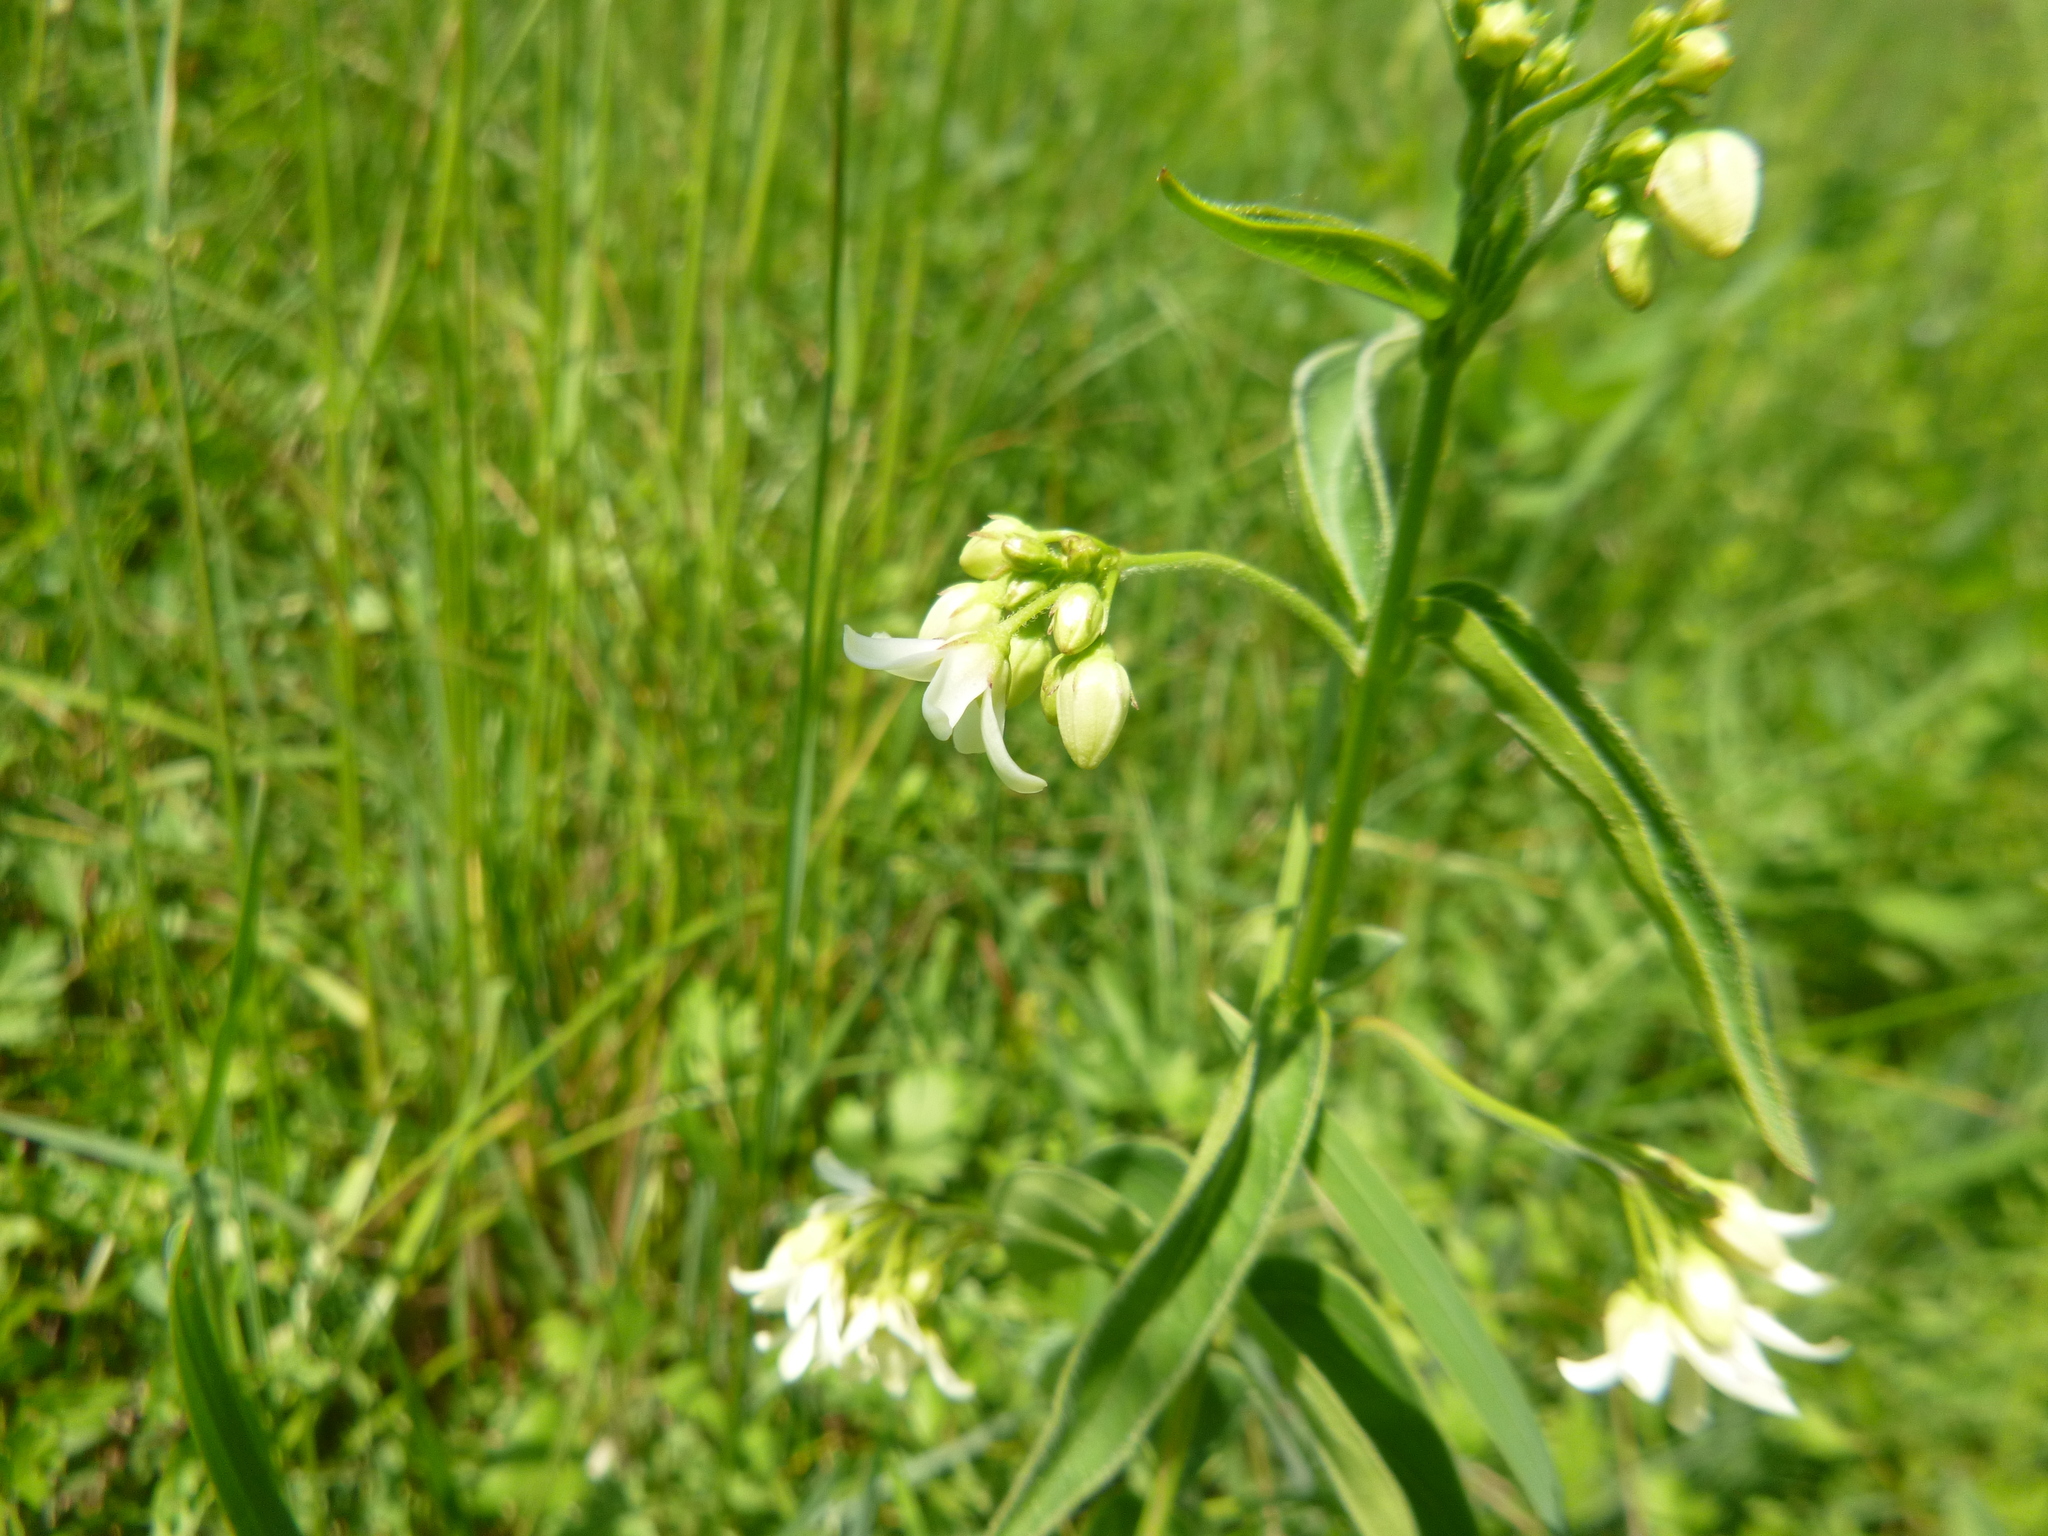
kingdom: Plantae
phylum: Tracheophyta
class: Magnoliopsida
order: Gentianales
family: Apocynaceae
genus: Vincetoxicum
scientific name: Vincetoxicum hirundinaria
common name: White swallowwort
